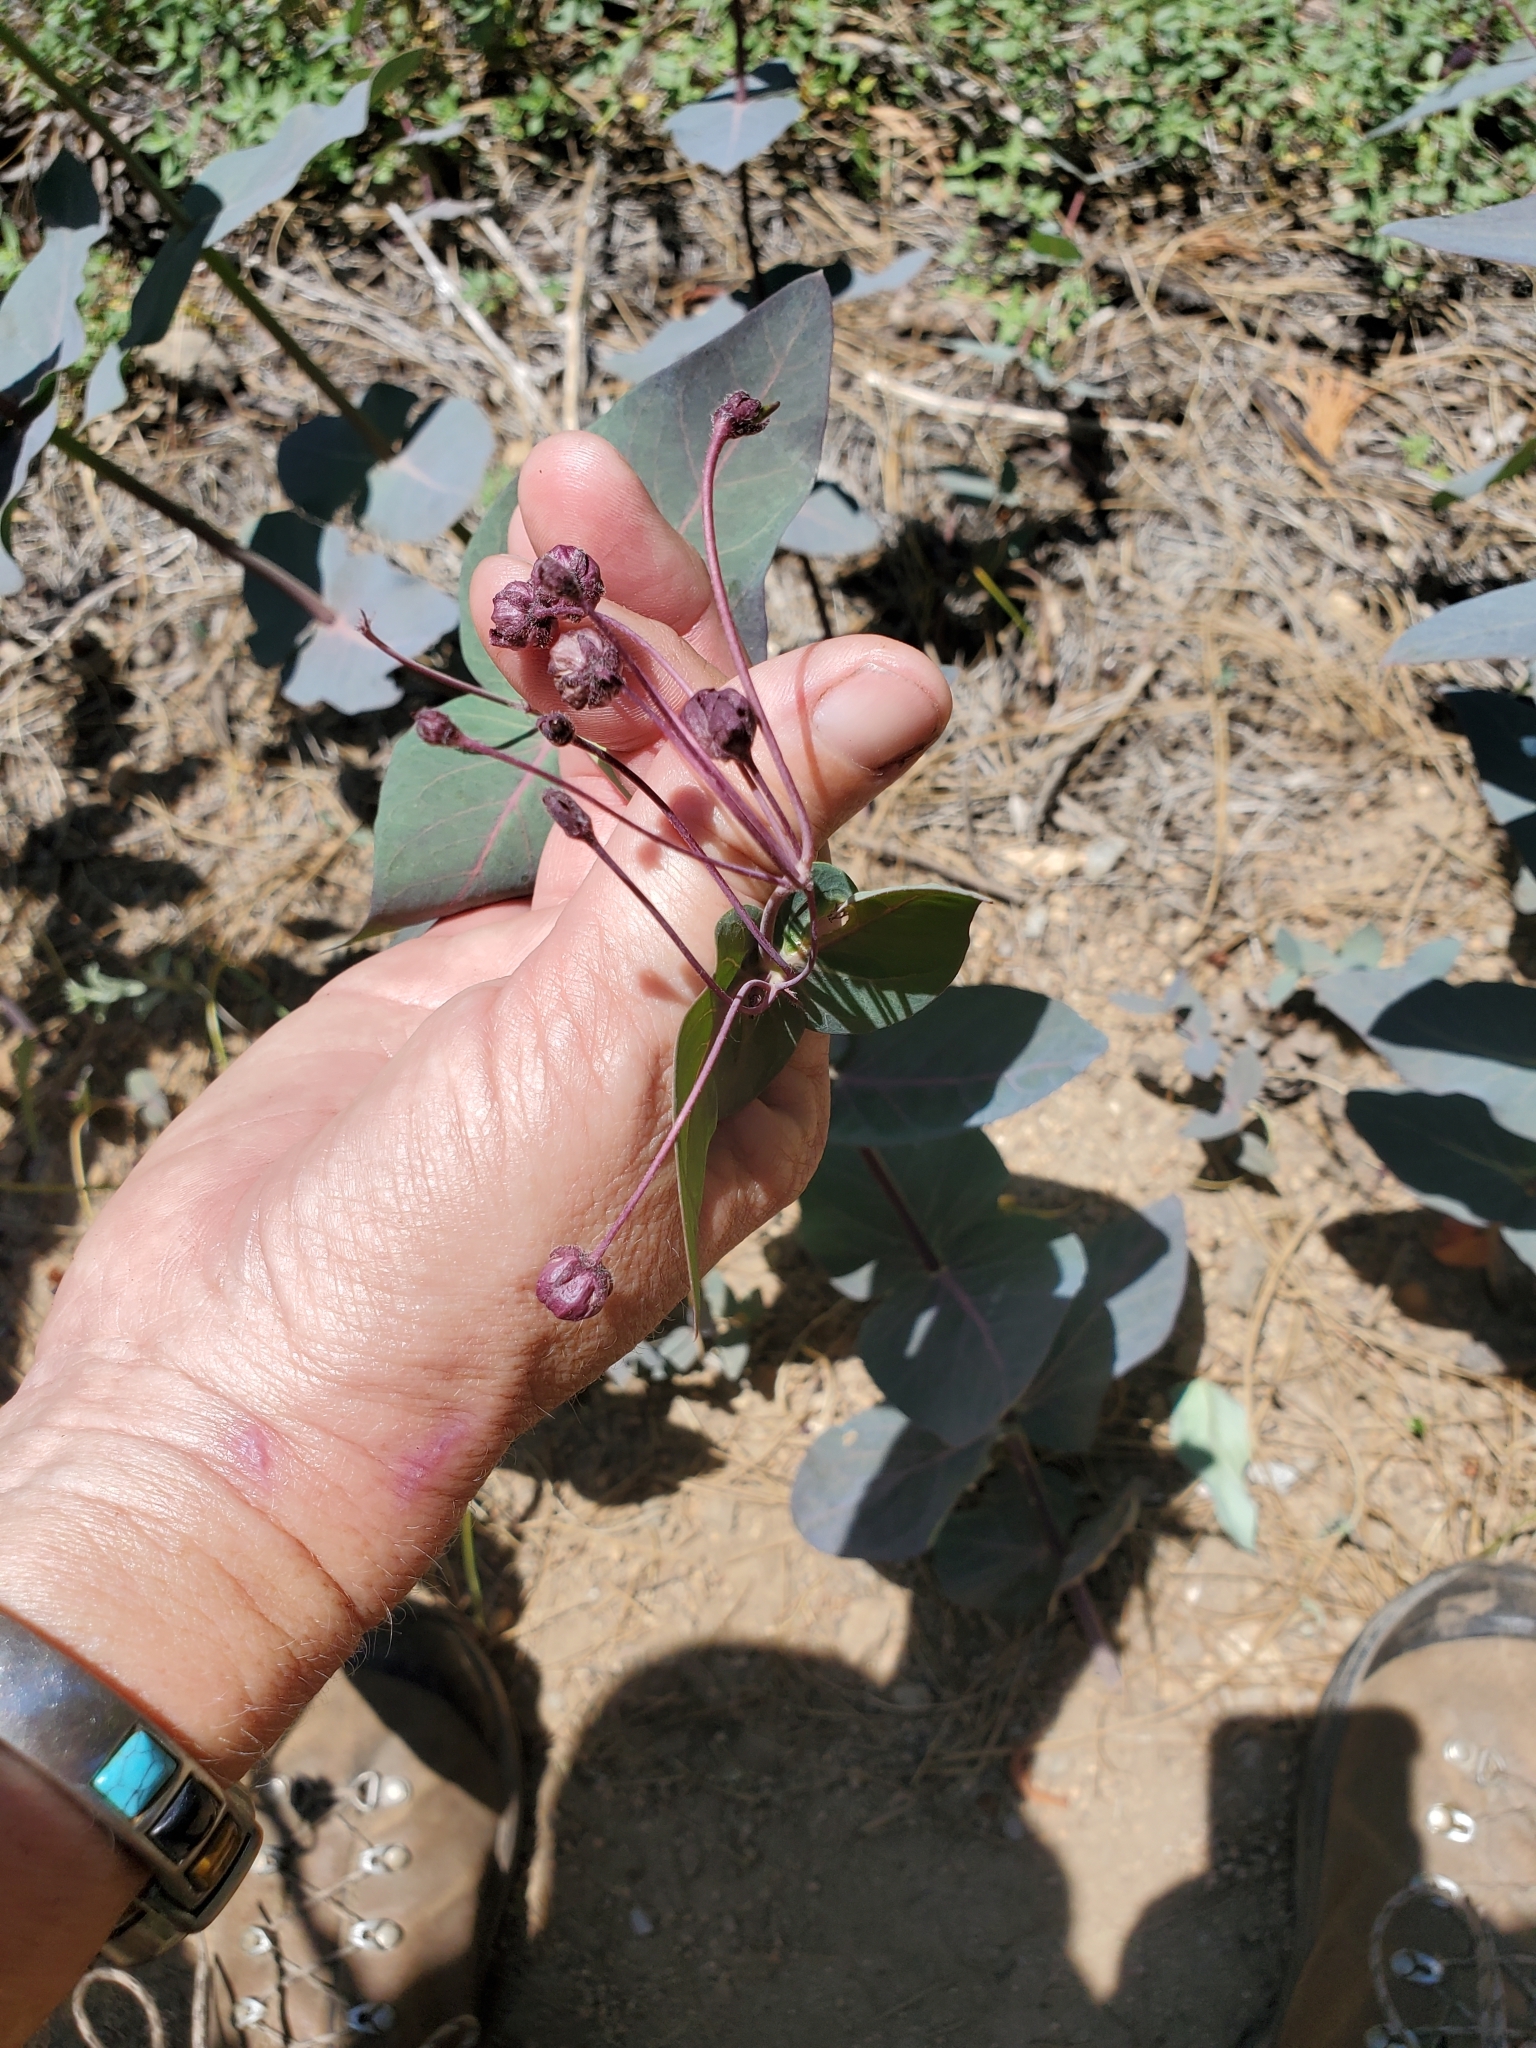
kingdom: Plantae
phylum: Tracheophyta
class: Magnoliopsida
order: Gentianales
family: Apocynaceae
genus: Asclepias
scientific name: Asclepias cordifolia
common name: Purple milkweed
